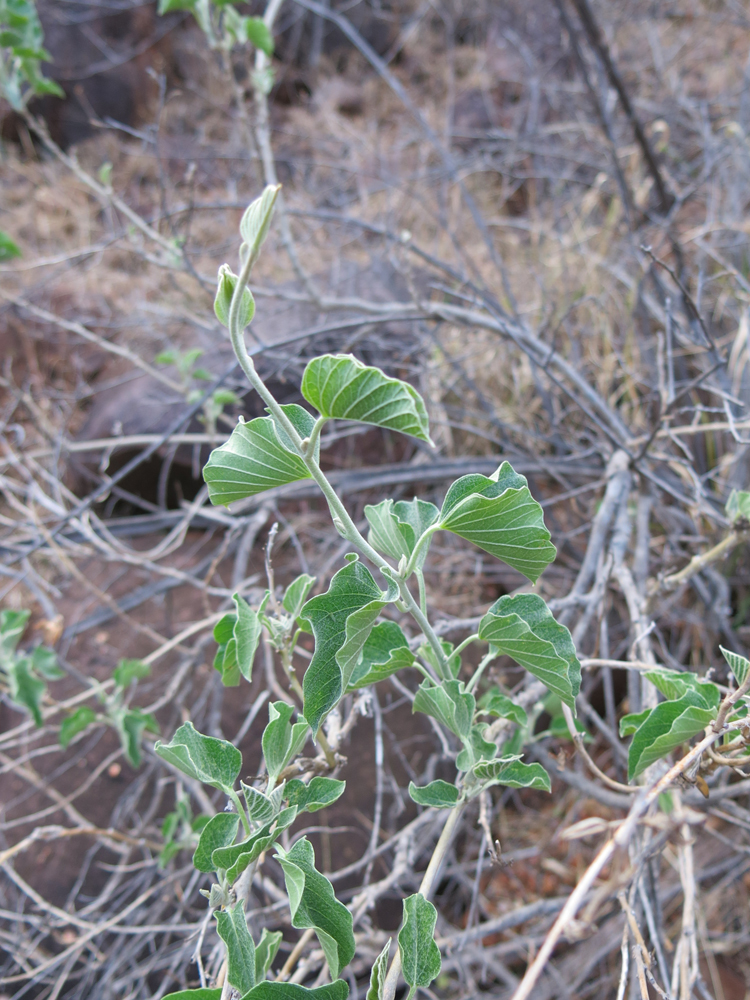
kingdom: Plantae
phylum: Tracheophyta
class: Magnoliopsida
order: Solanales
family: Convolvulaceae
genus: Ipomoea
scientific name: Ipomoea albivenia
